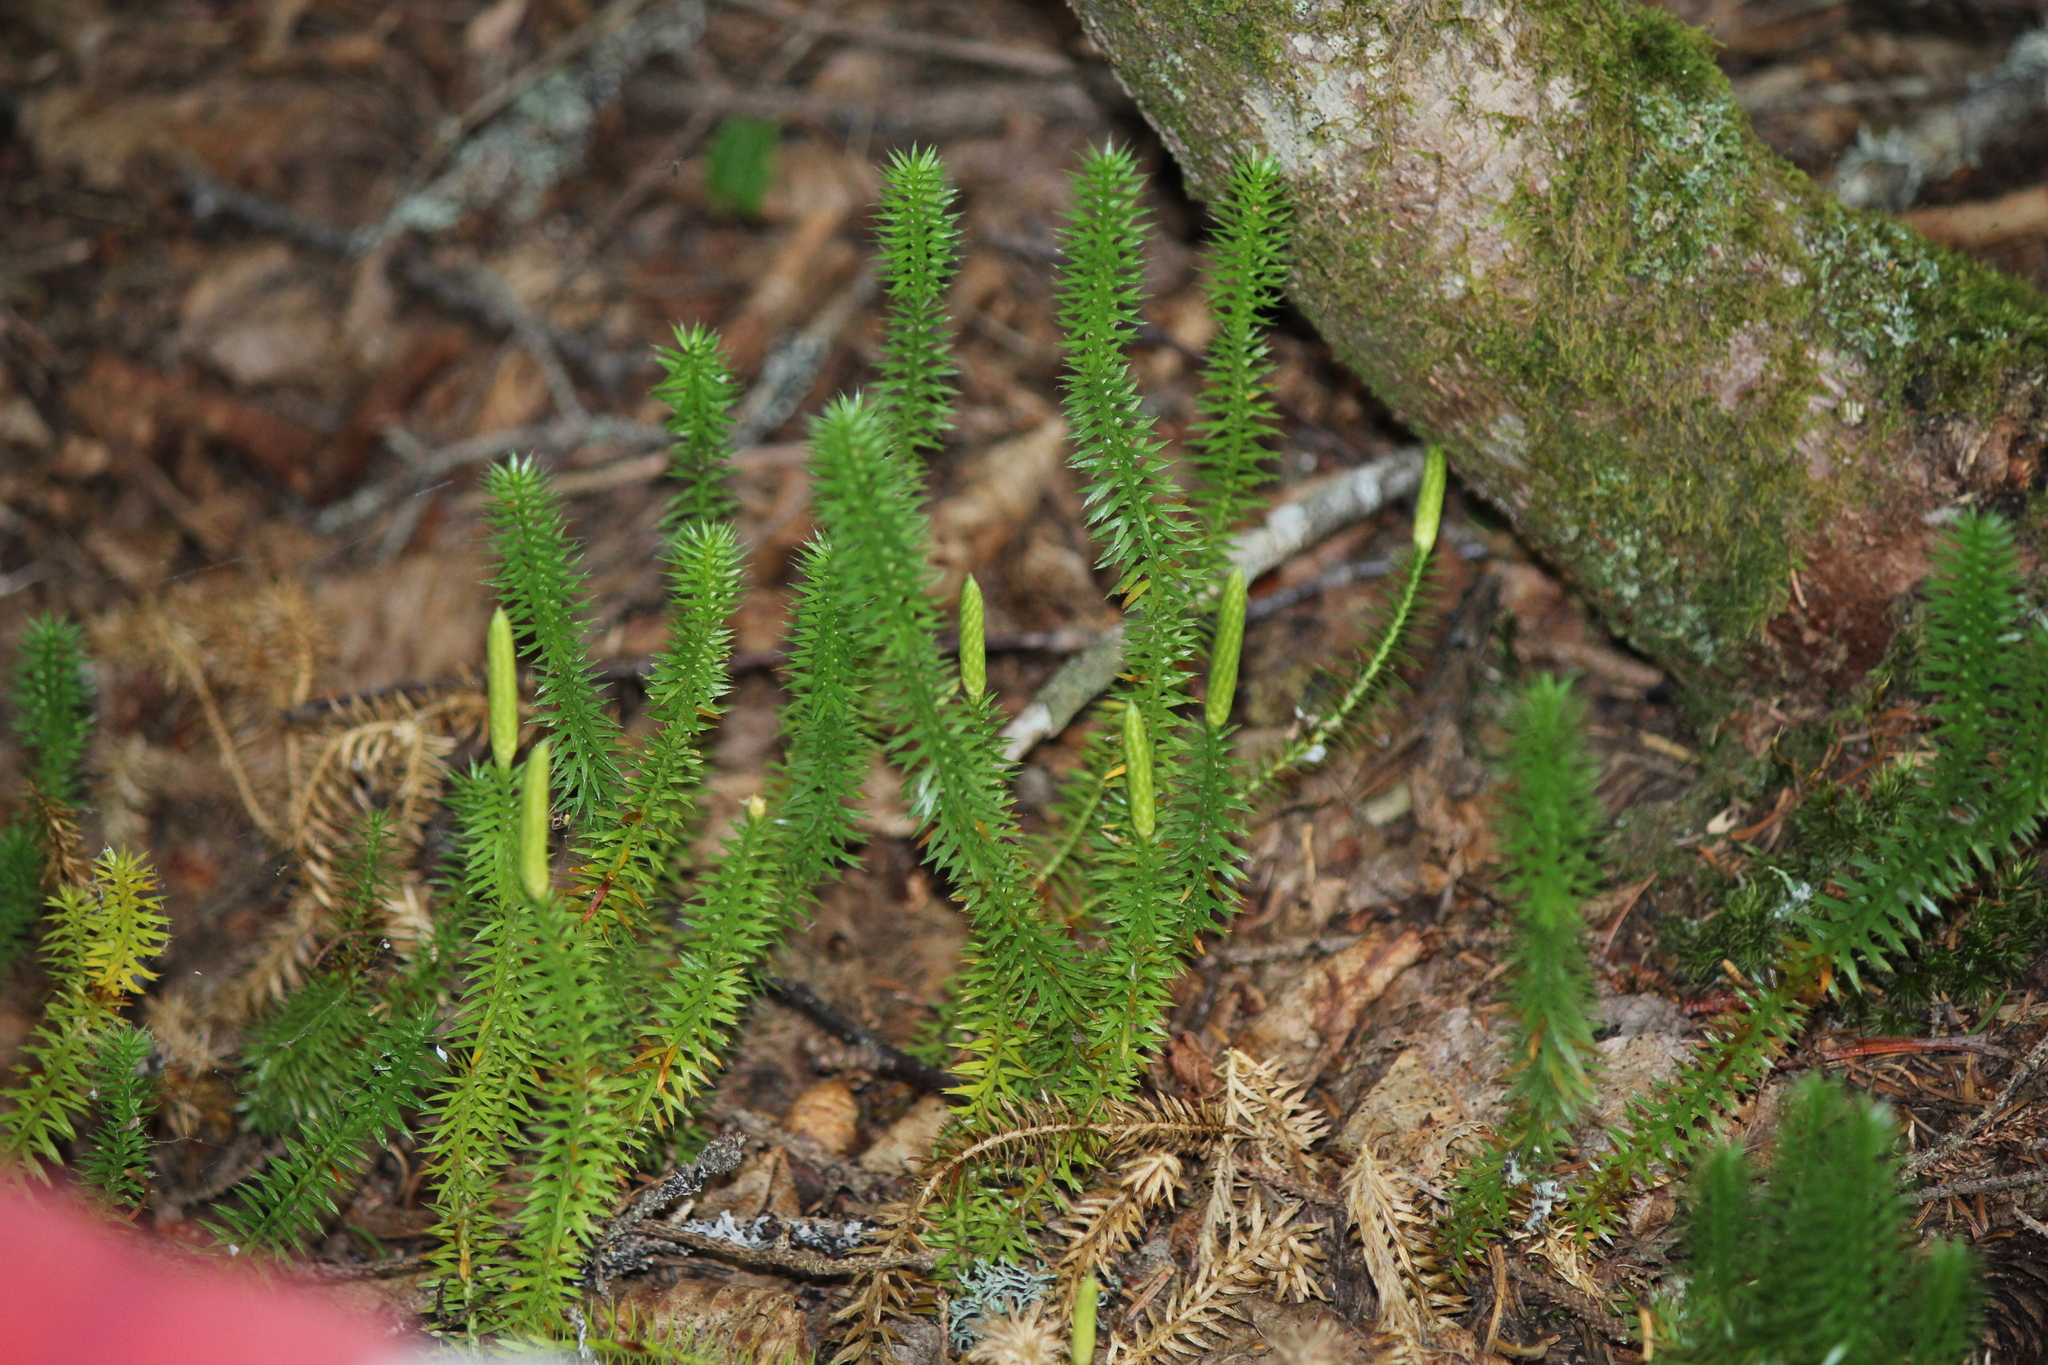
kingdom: Plantae
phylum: Tracheophyta
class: Lycopodiopsida
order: Lycopodiales
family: Lycopodiaceae
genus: Spinulum
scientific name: Spinulum annotinum
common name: Interrupted club-moss
